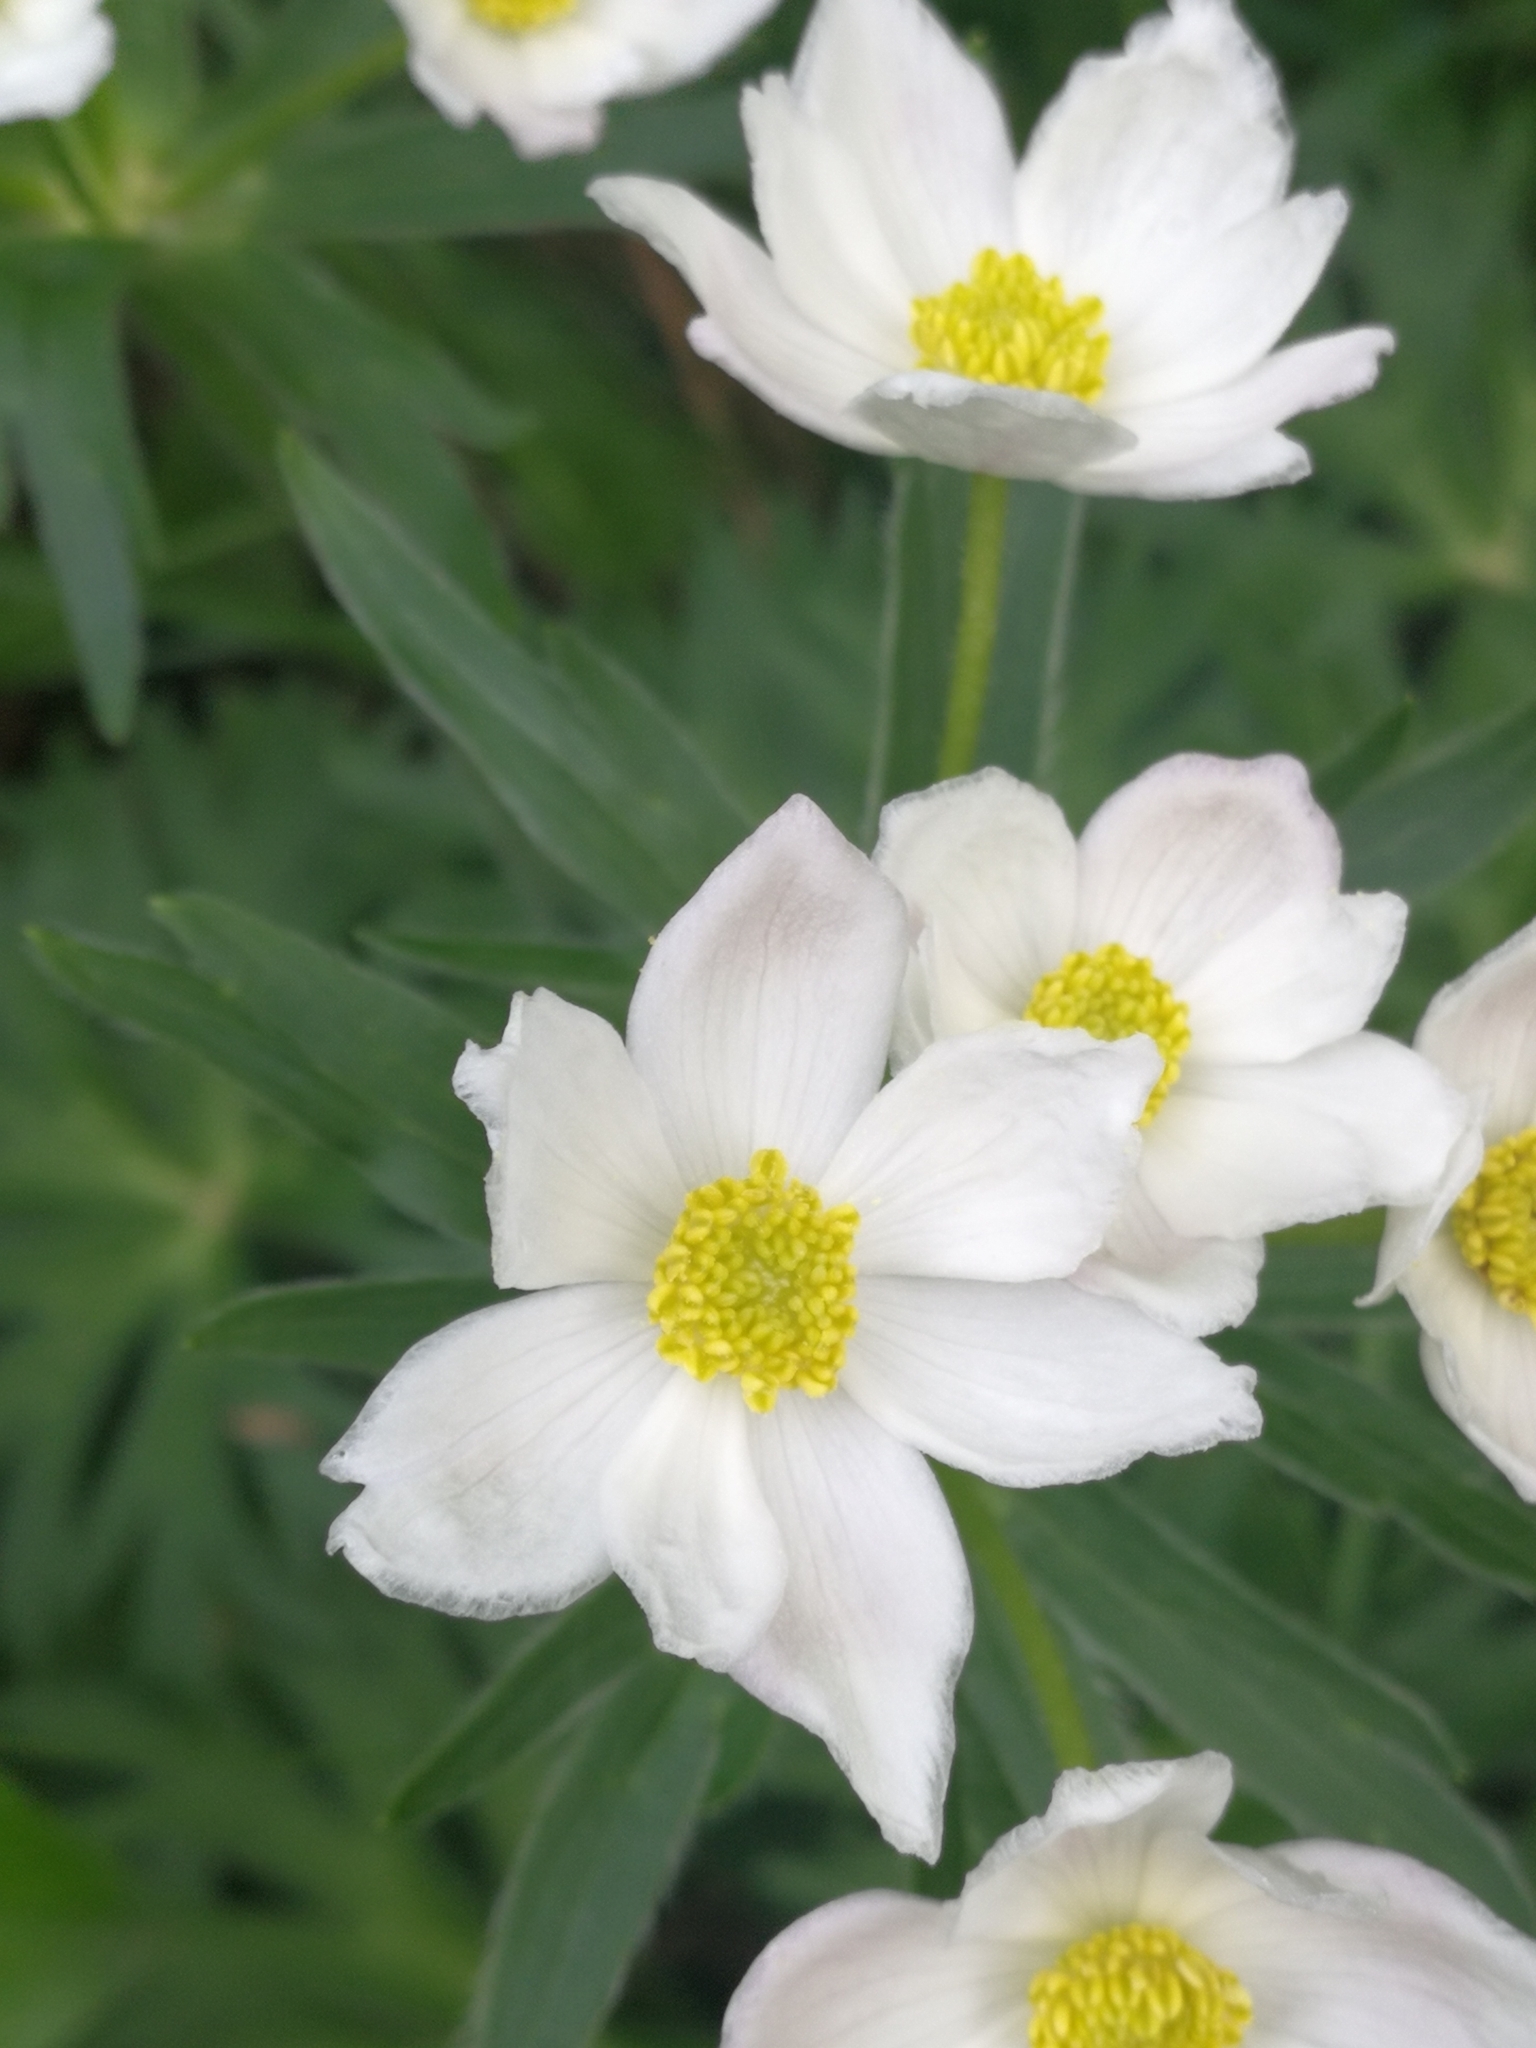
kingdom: Plantae
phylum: Tracheophyta
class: Magnoliopsida
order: Ranunculales
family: Ranunculaceae
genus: Anemonastrum
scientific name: Anemonastrum narcissiflorum
